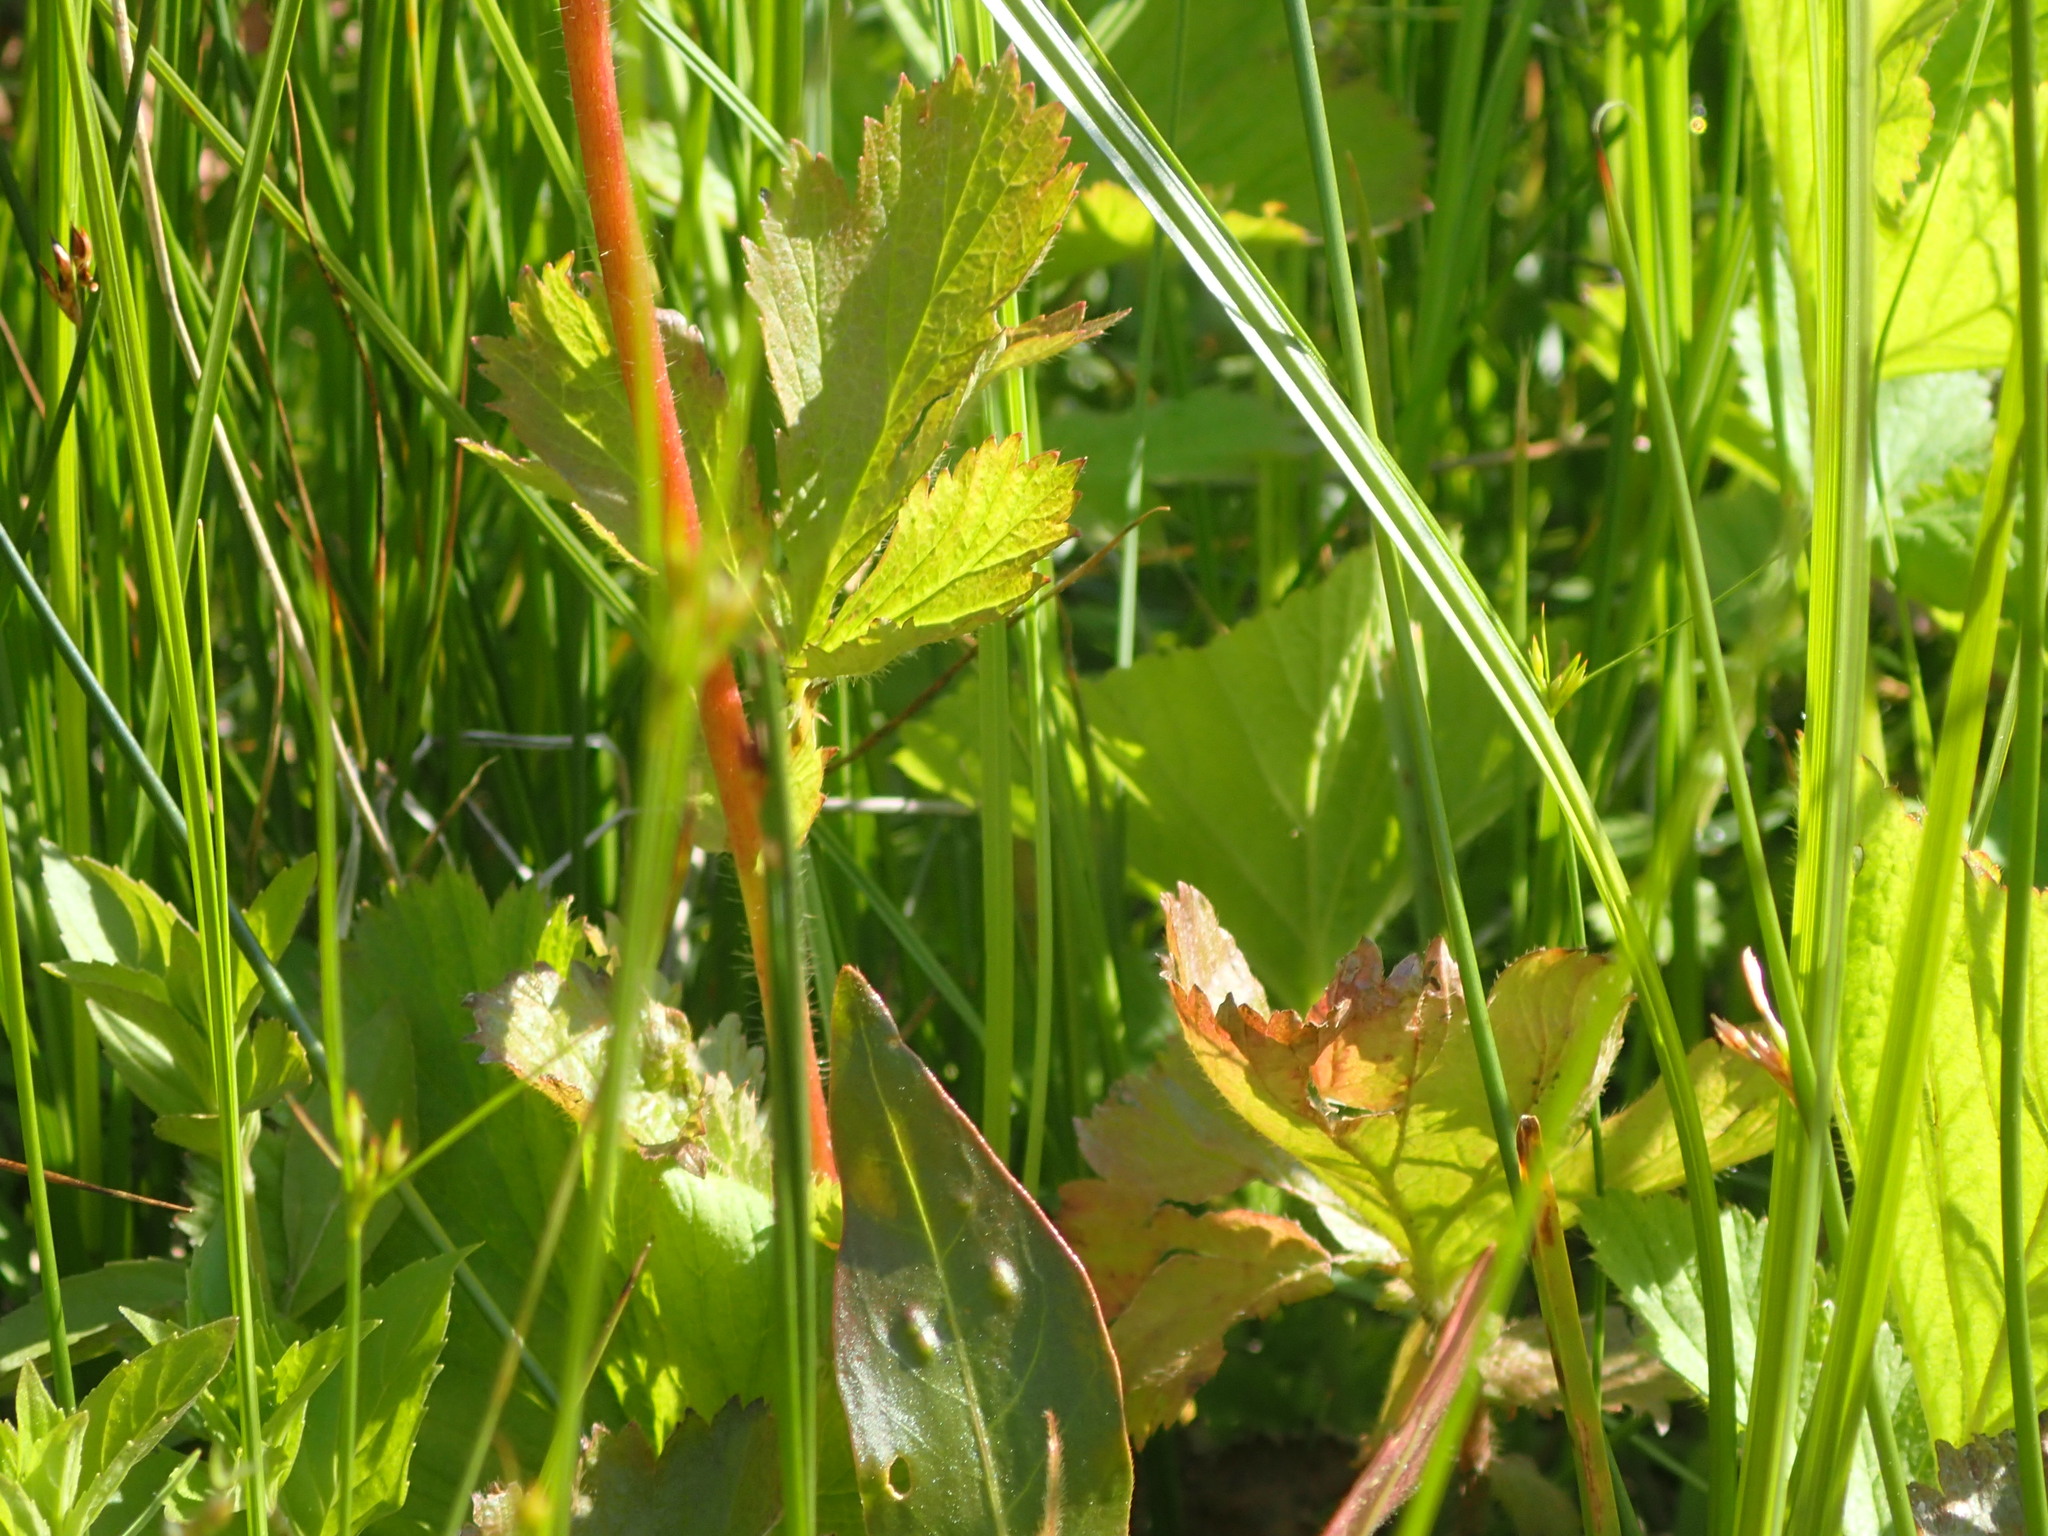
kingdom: Plantae
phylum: Tracheophyta
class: Magnoliopsida
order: Rosales
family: Rosaceae
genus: Geum
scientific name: Geum aleppicum
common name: Yellow avens
